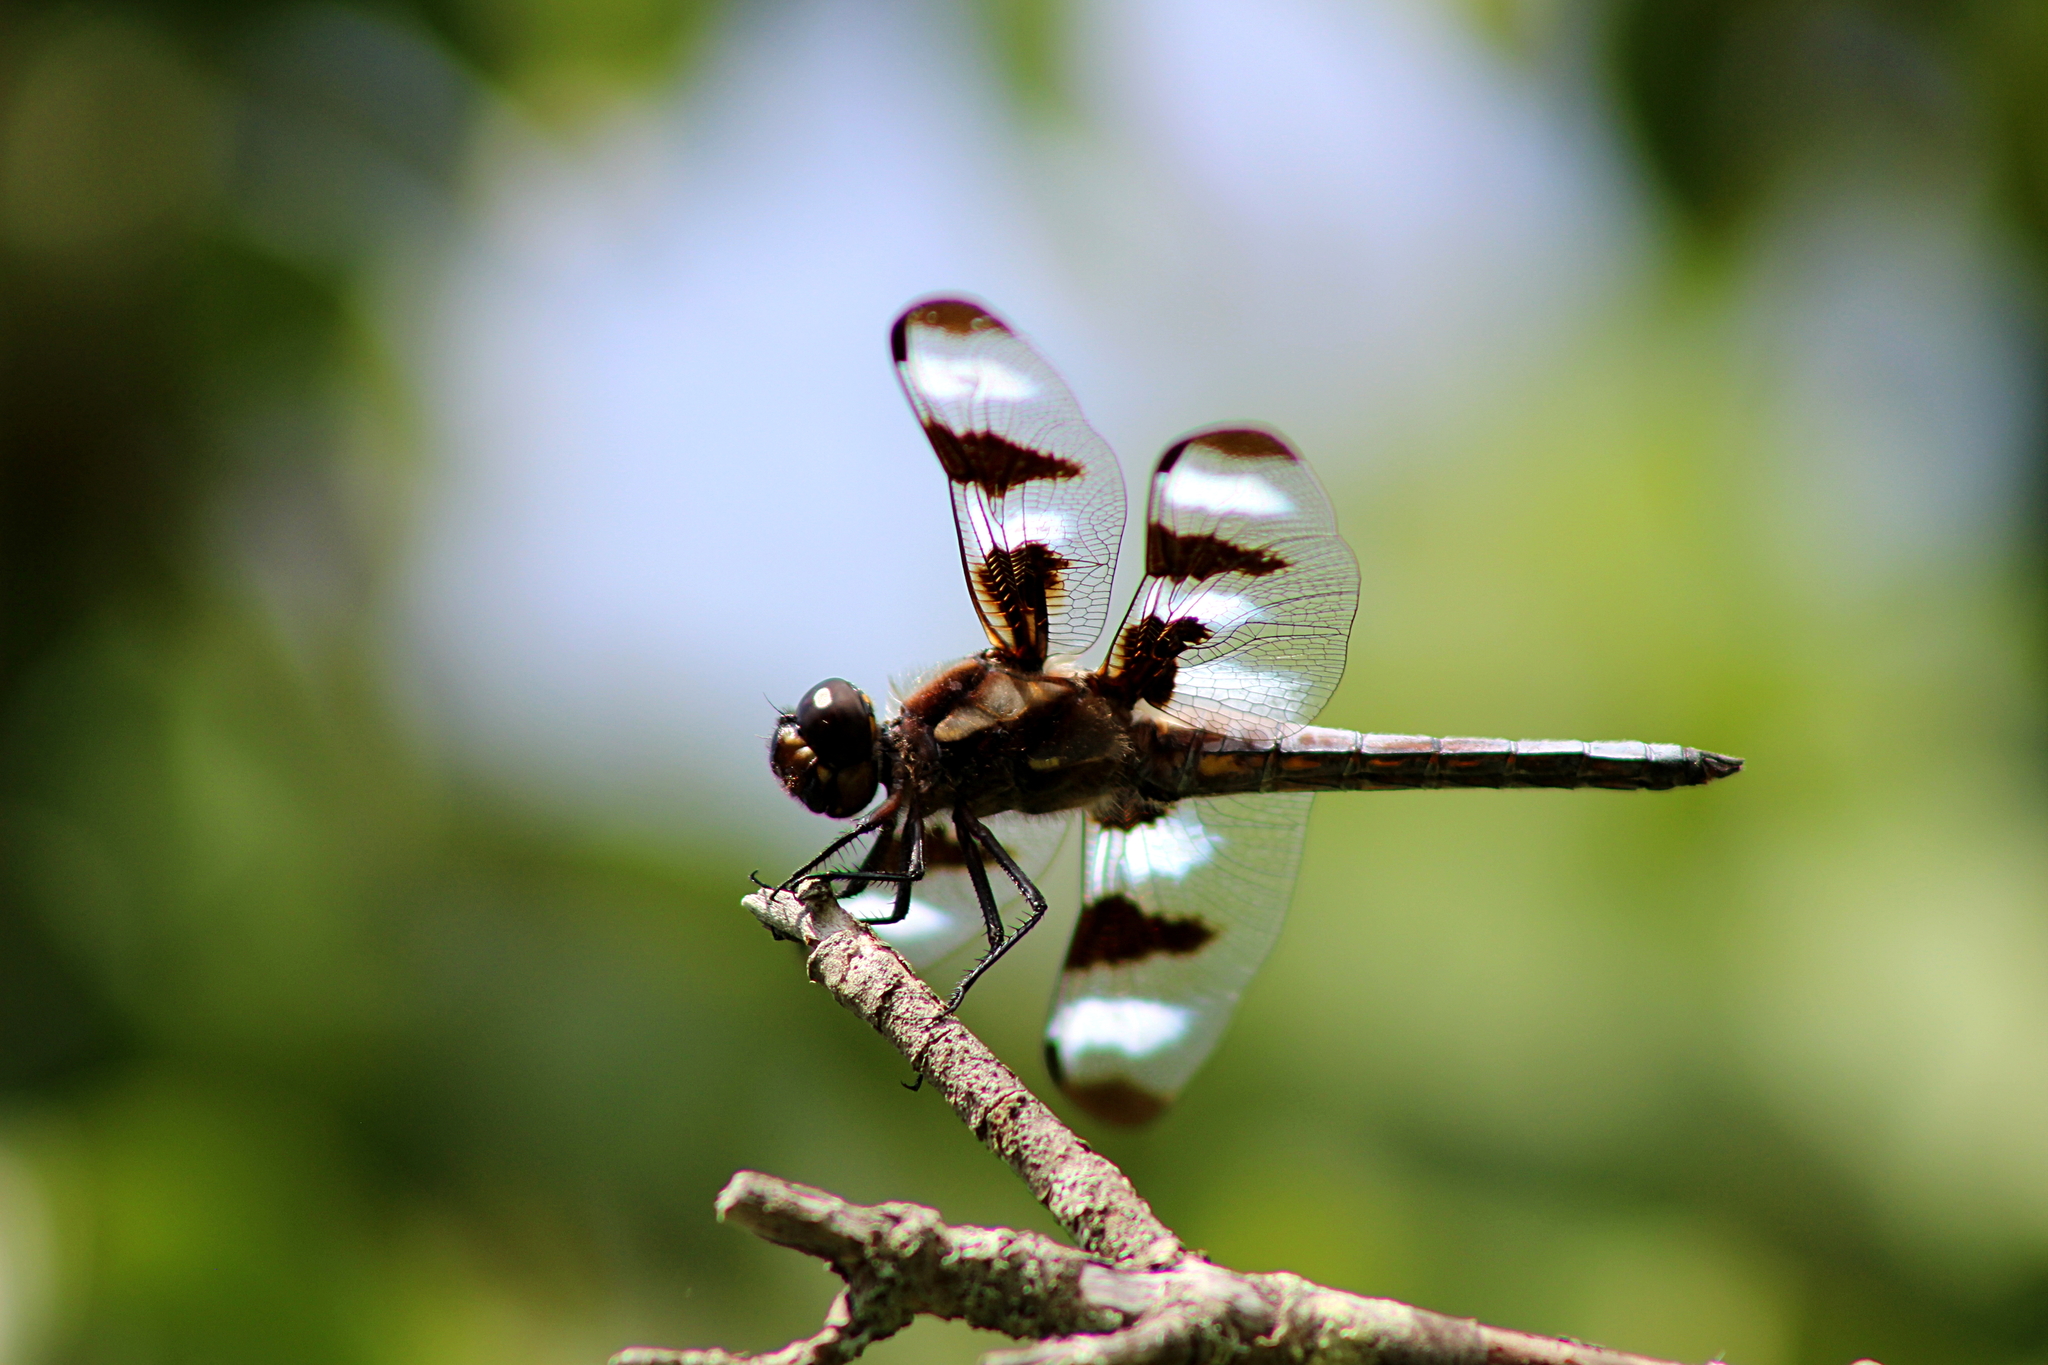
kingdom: Animalia
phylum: Arthropoda
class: Insecta
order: Odonata
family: Libellulidae
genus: Libellula
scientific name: Libellula pulchella
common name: Twelve-spotted skimmer
